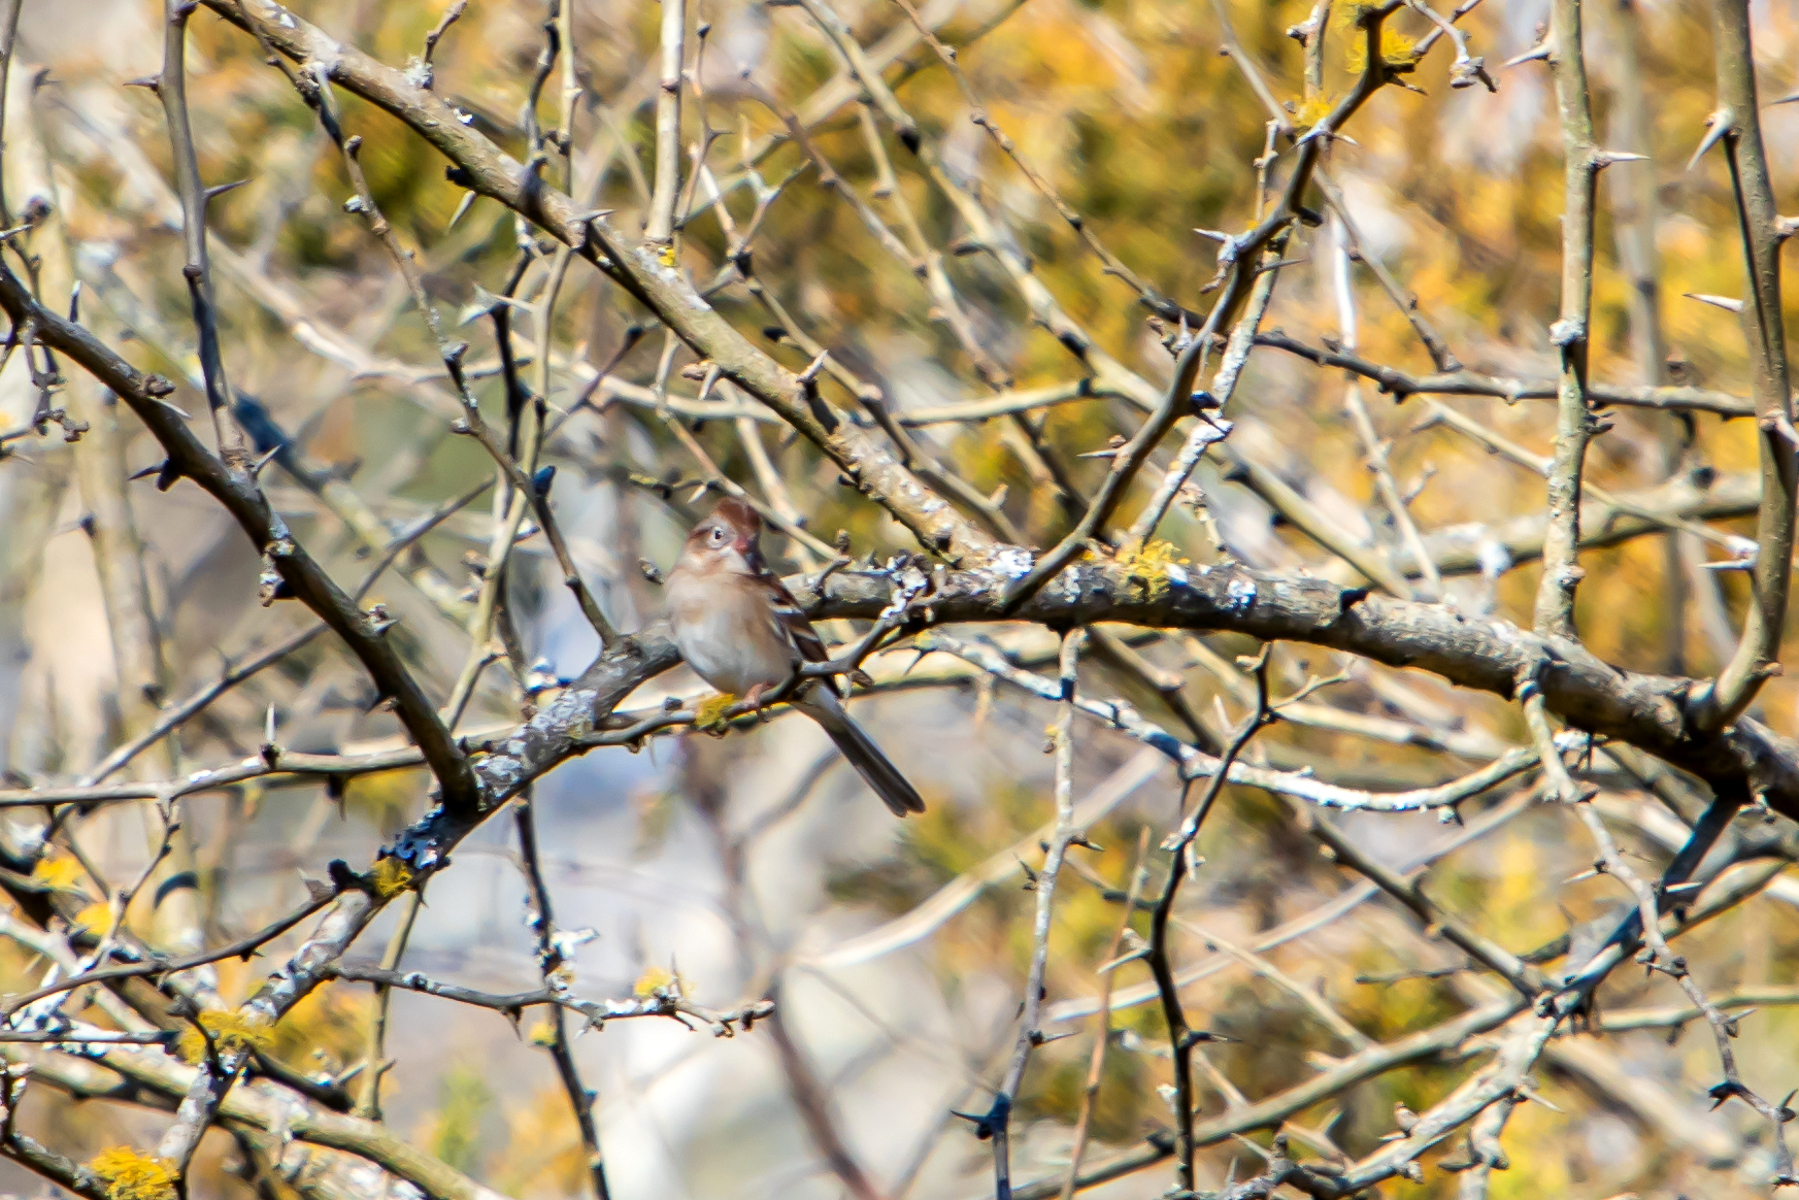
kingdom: Animalia
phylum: Chordata
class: Aves
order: Passeriformes
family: Passerellidae
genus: Spizella
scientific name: Spizella pusilla
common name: Field sparrow
